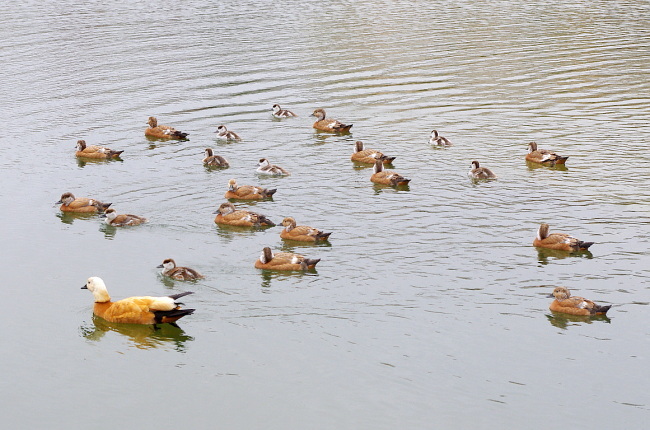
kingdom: Animalia
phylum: Chordata
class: Aves
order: Anseriformes
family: Anatidae
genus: Tadorna
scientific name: Tadorna ferruginea
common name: Ruddy shelduck
